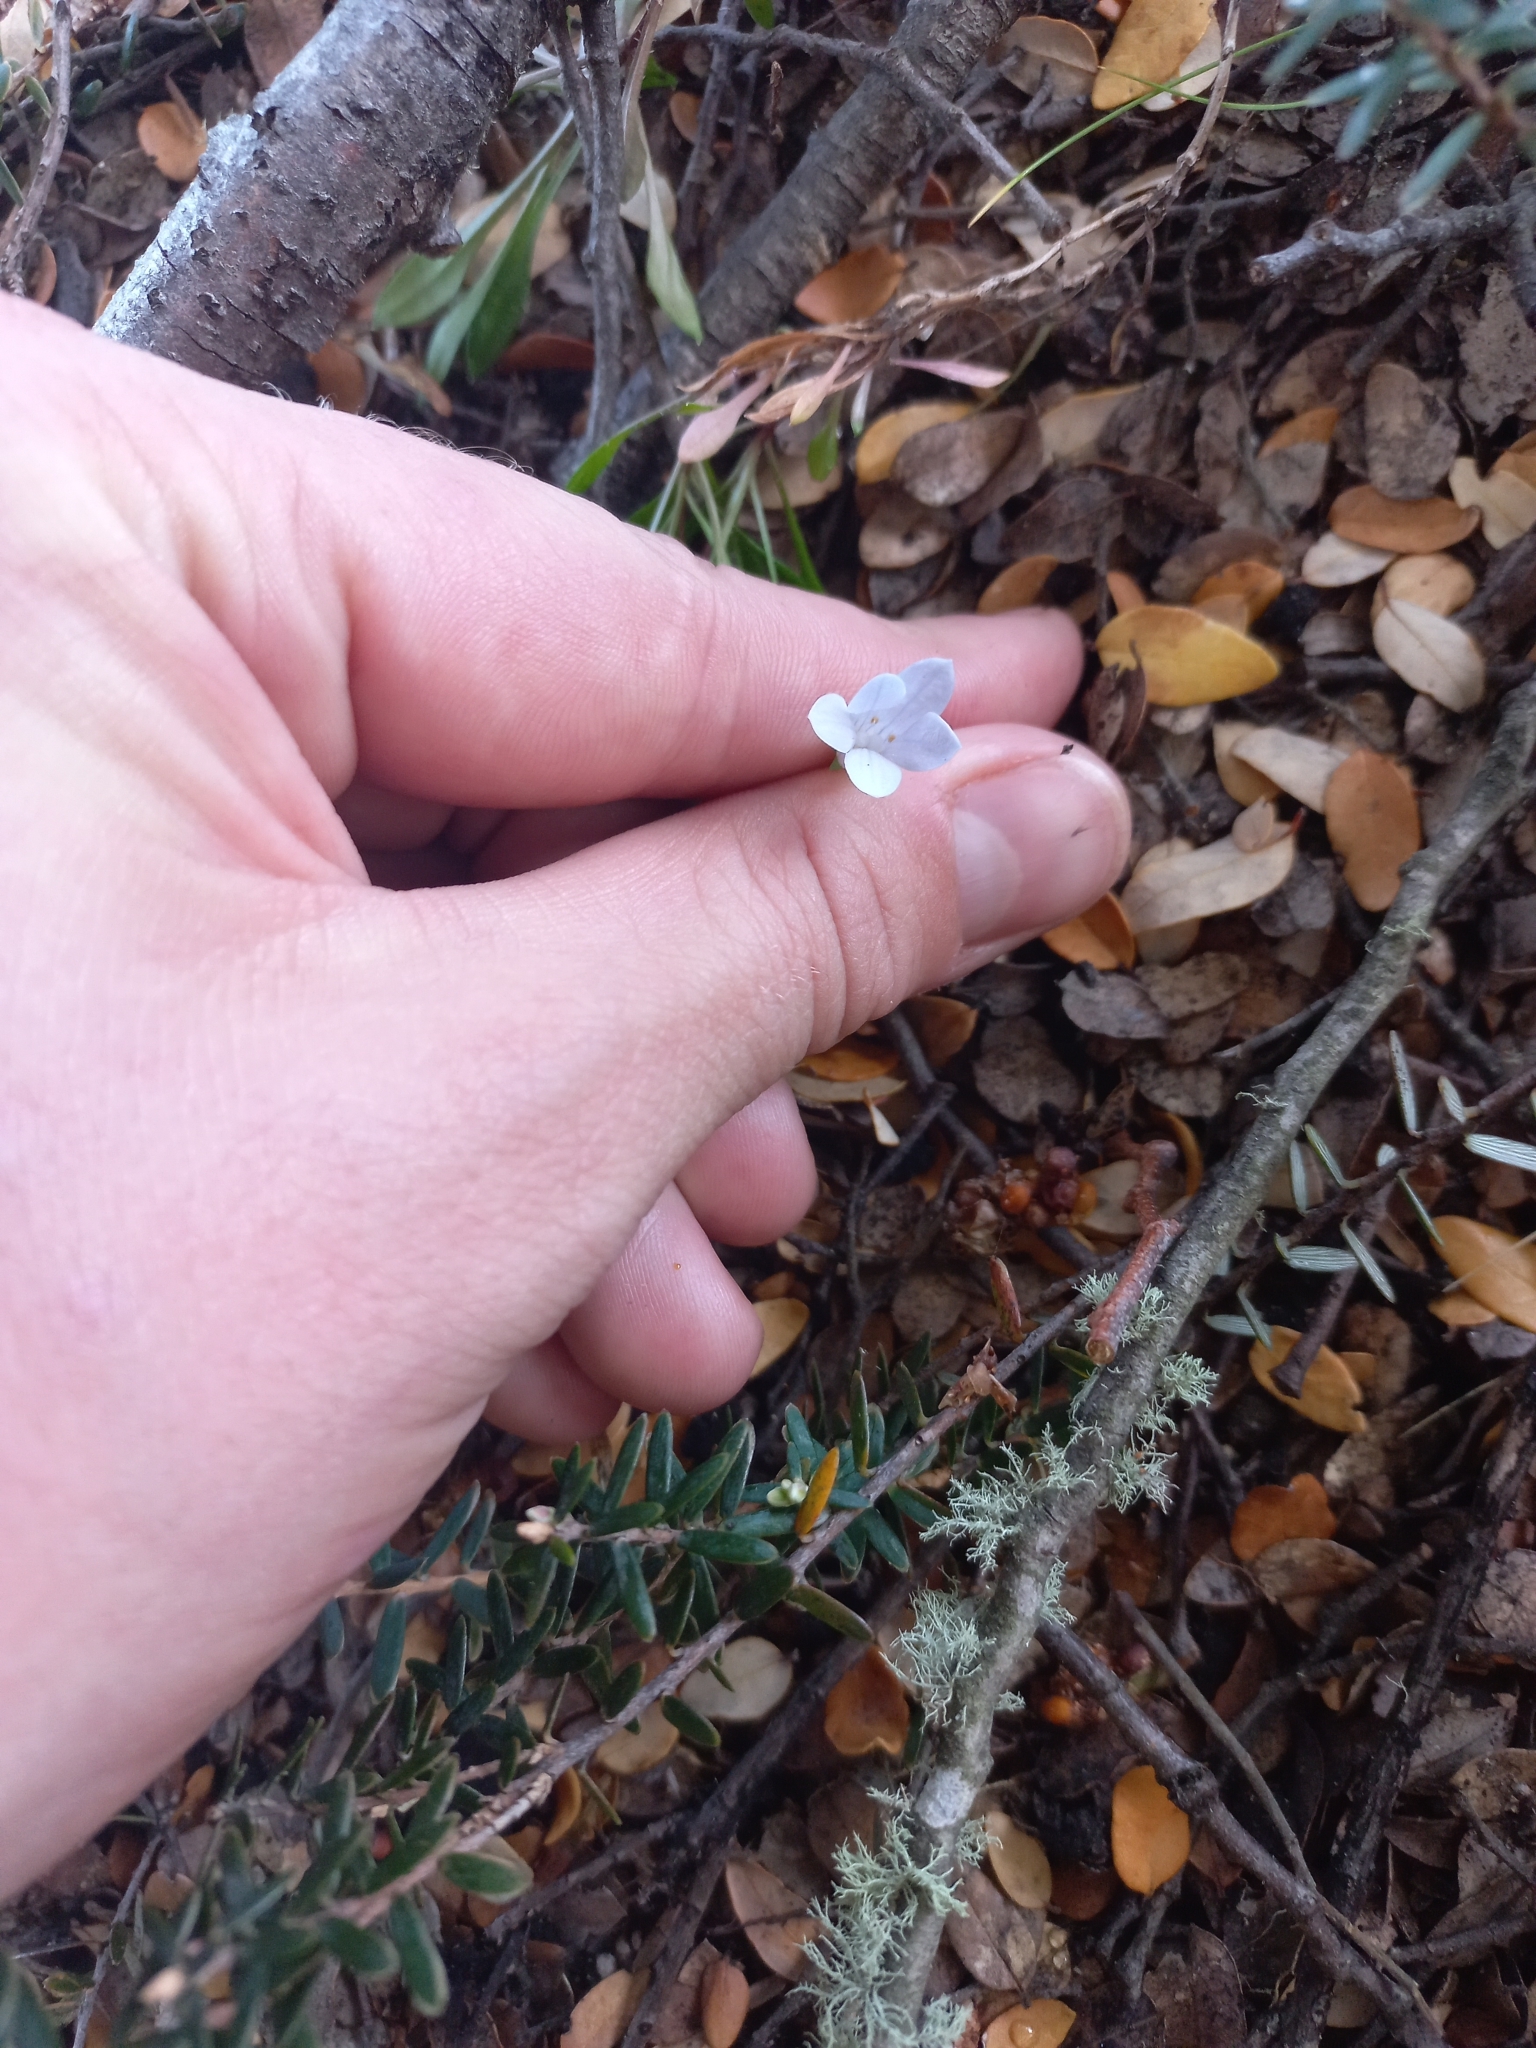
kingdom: Plantae
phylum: Tracheophyta
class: Magnoliopsida
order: Asterales
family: Campanulaceae
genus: Wahlenbergia
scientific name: Wahlenbergia albomarginata
